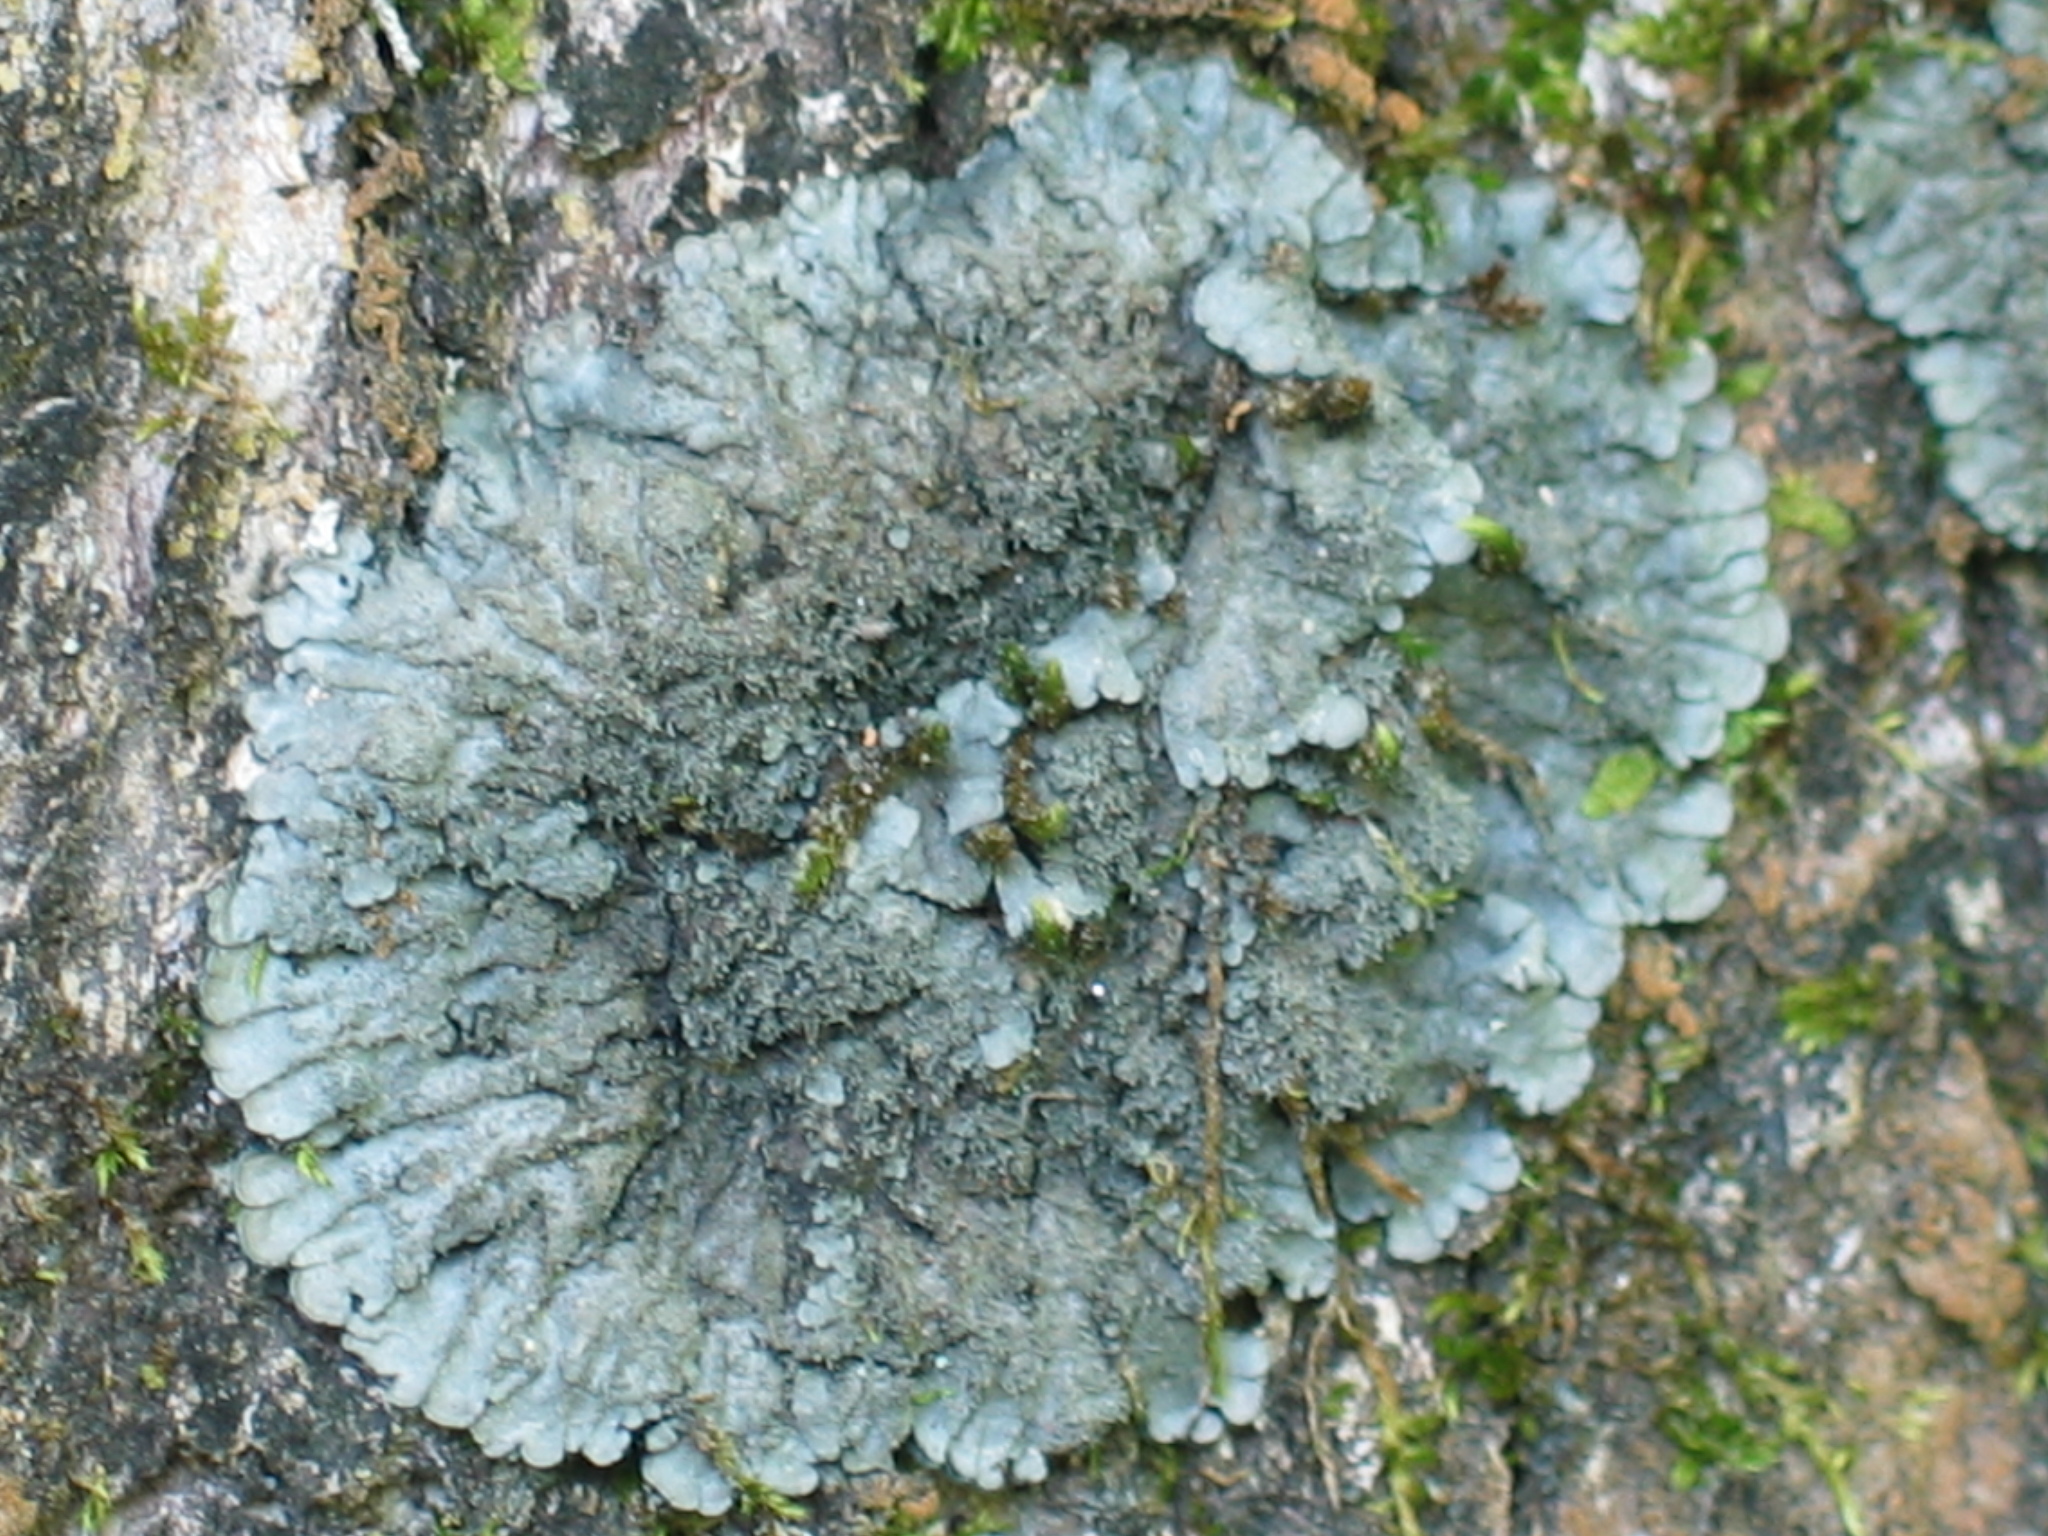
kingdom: Fungi
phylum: Ascomycota
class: Lecanoromycetes
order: Peltigerales
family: Coccocarpiaceae
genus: Coccocarpia
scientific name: Coccocarpia palmicola
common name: Salted shell lichen
